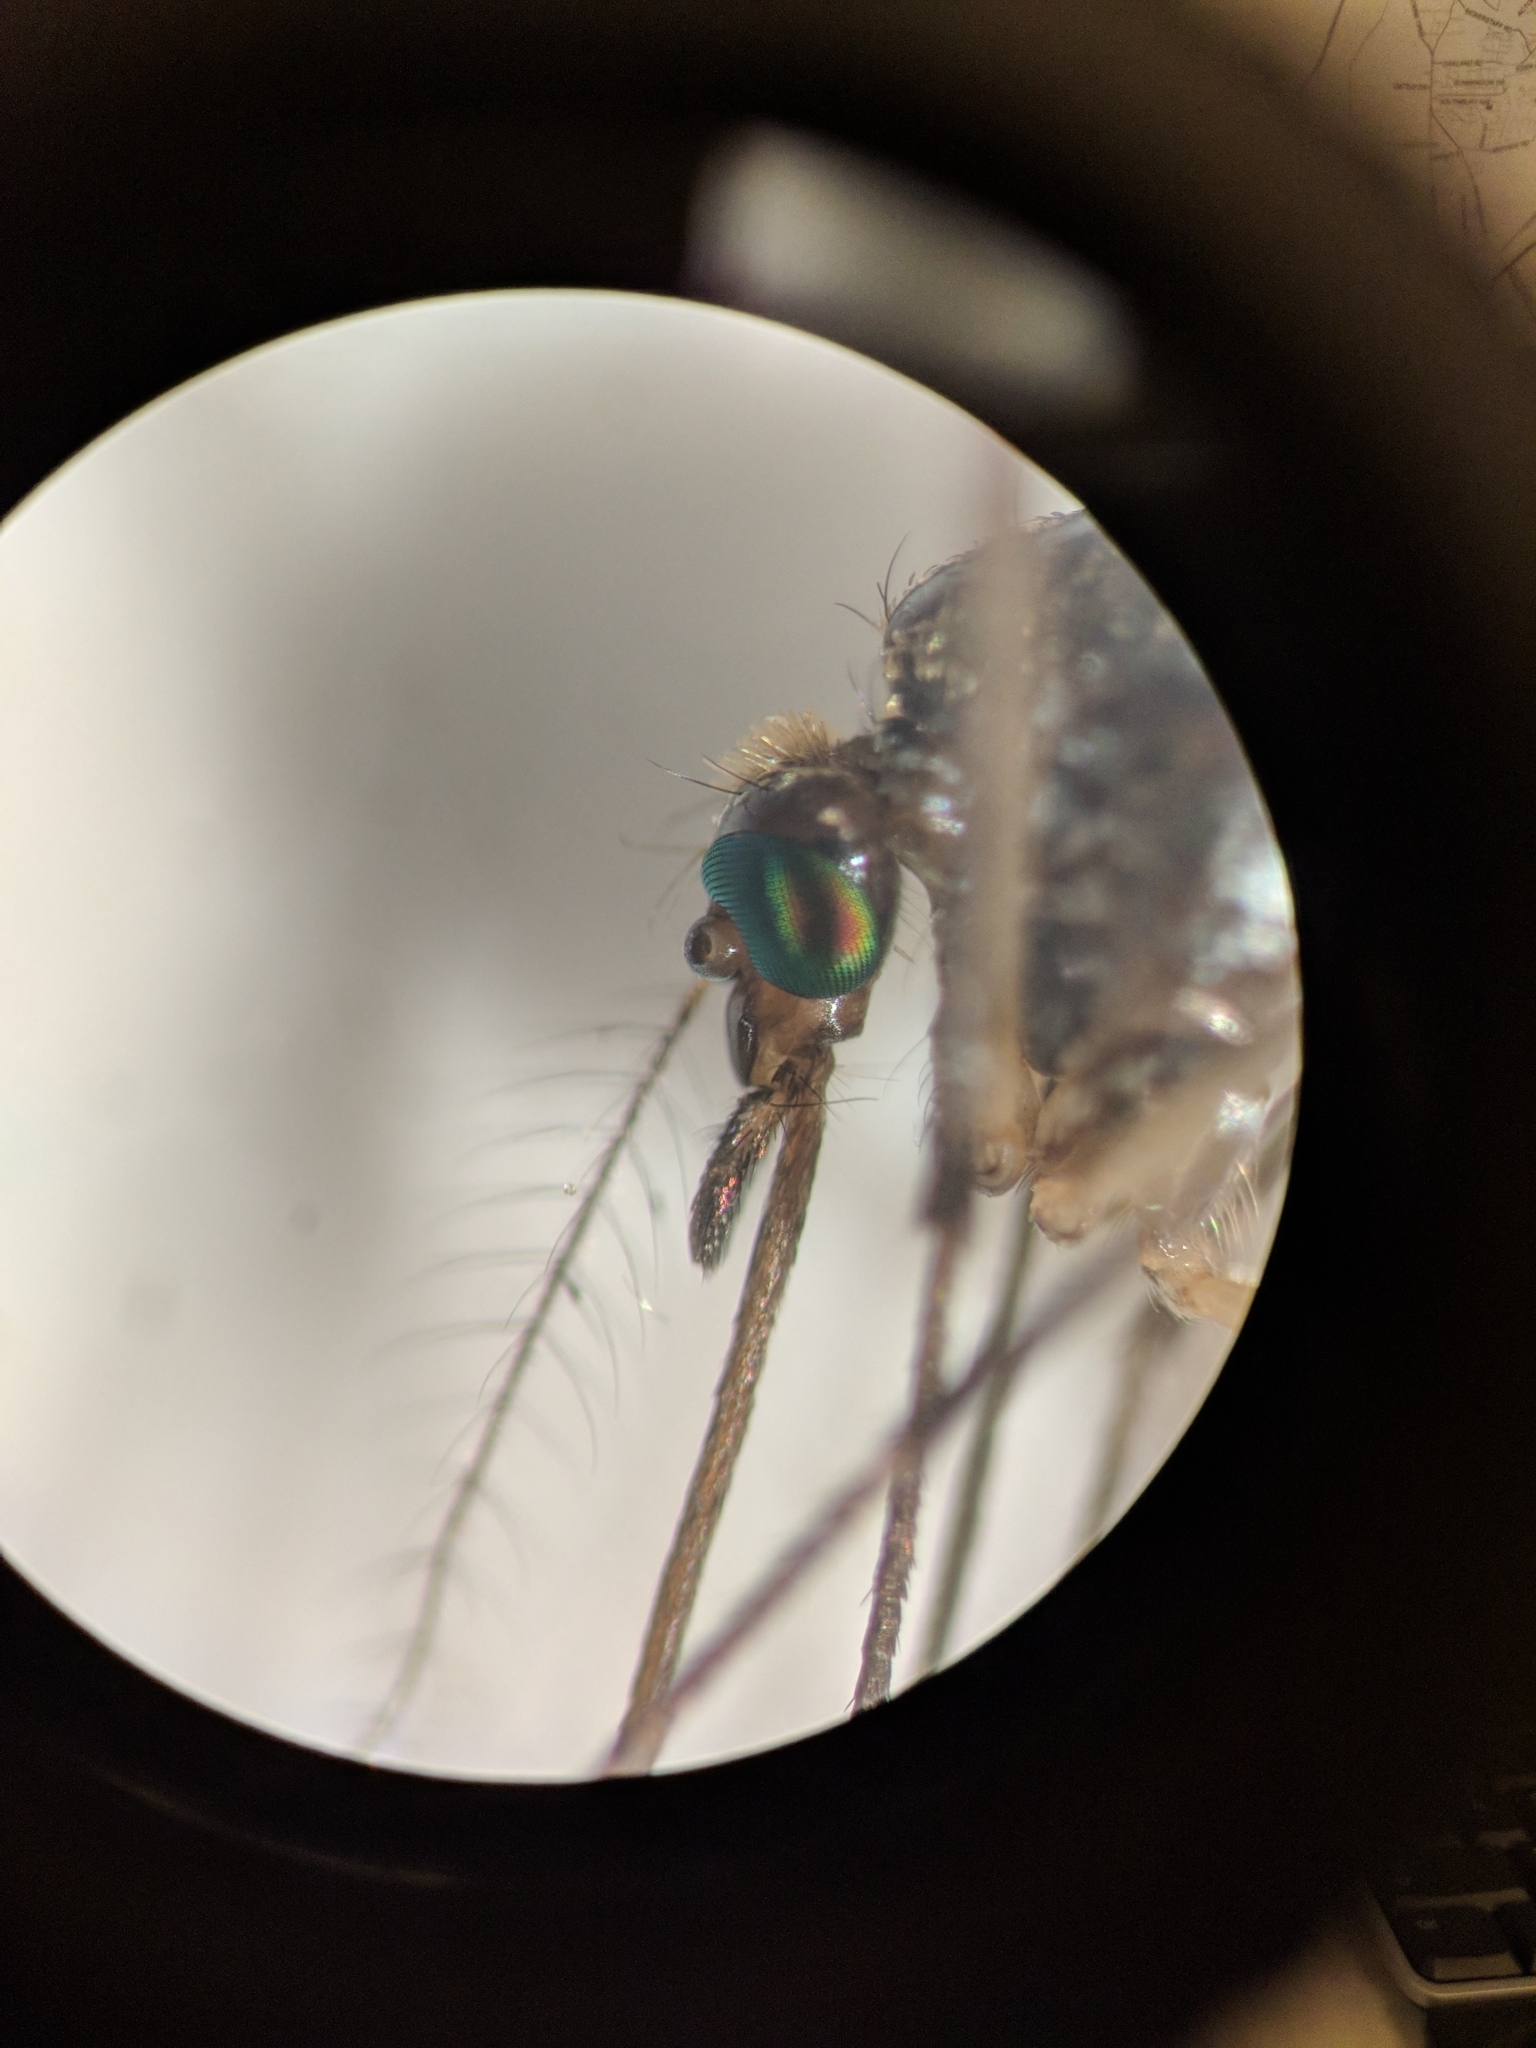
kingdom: Animalia
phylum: Arthropoda
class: Insecta
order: Diptera
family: Culicidae
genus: Psorophora
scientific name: Psorophora ferox
